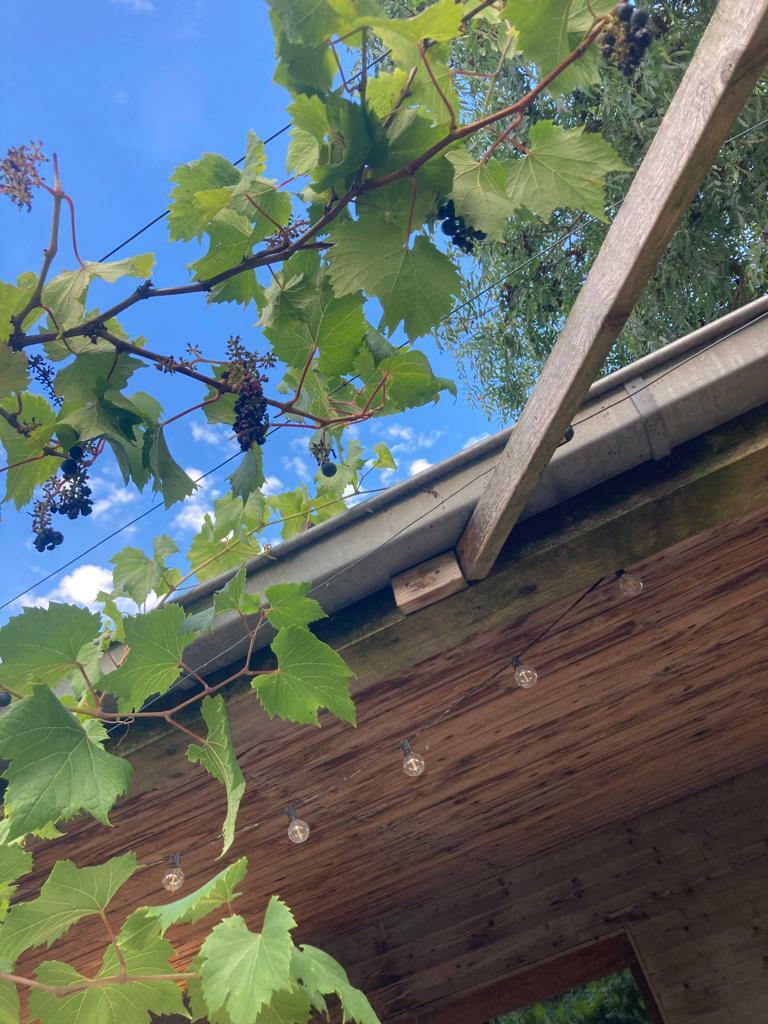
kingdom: Animalia
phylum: Arthropoda
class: Insecta
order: Hymenoptera
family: Vespidae
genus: Vespa
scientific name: Vespa velutina
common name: Asian hornet
